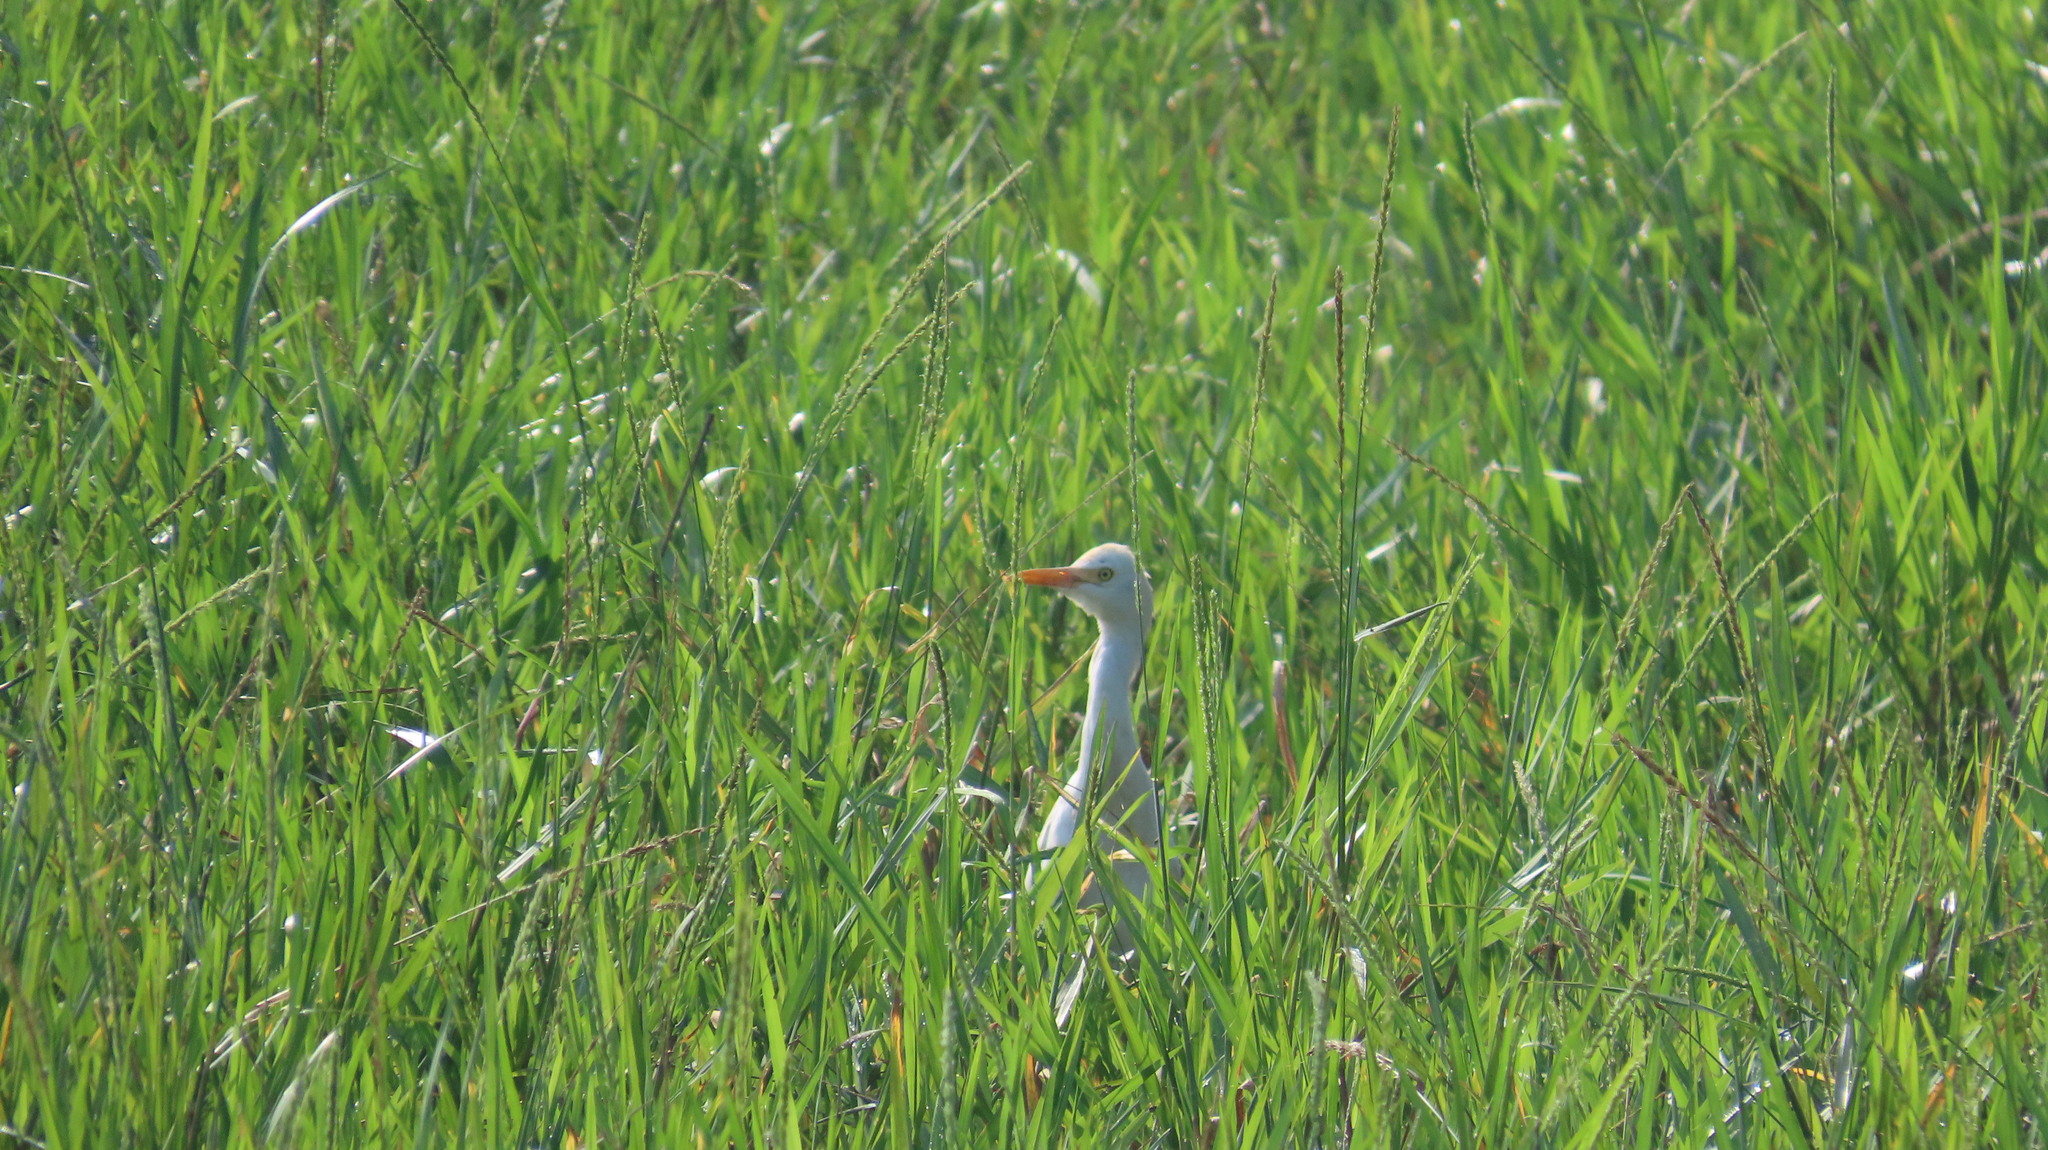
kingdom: Animalia
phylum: Chordata
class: Aves
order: Pelecaniformes
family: Ardeidae
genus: Bubulcus
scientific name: Bubulcus coromandus
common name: Eastern cattle egret
